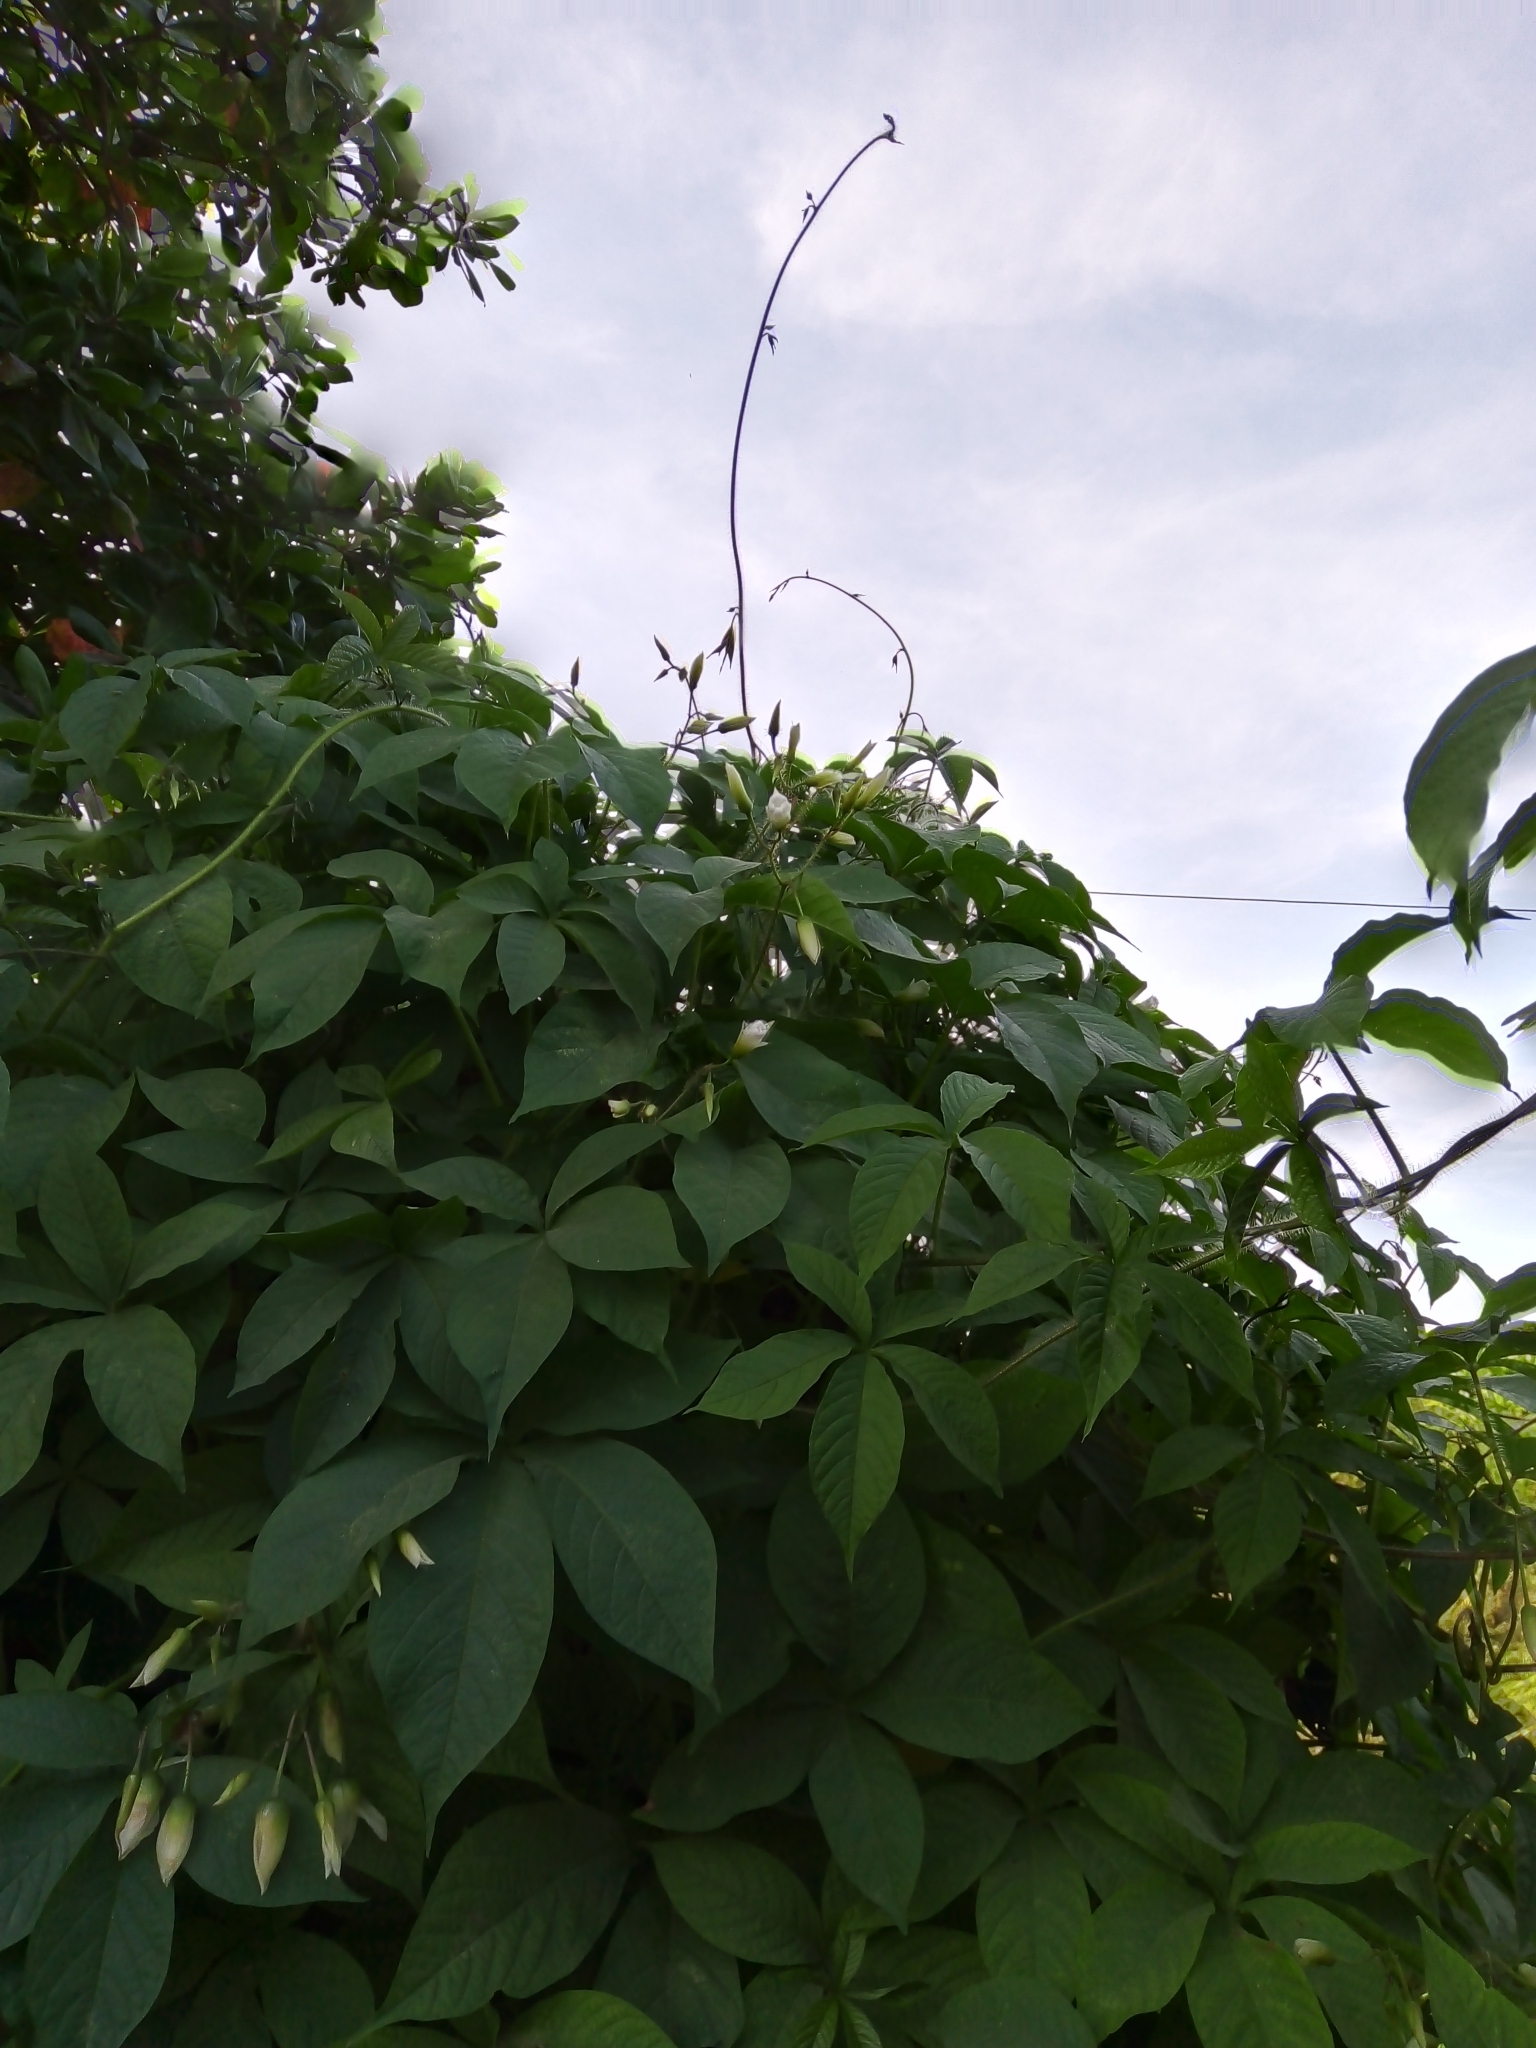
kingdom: Plantae
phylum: Tracheophyta
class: Magnoliopsida
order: Solanales
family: Convolvulaceae
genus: Distimake
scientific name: Distimake aegyptius
